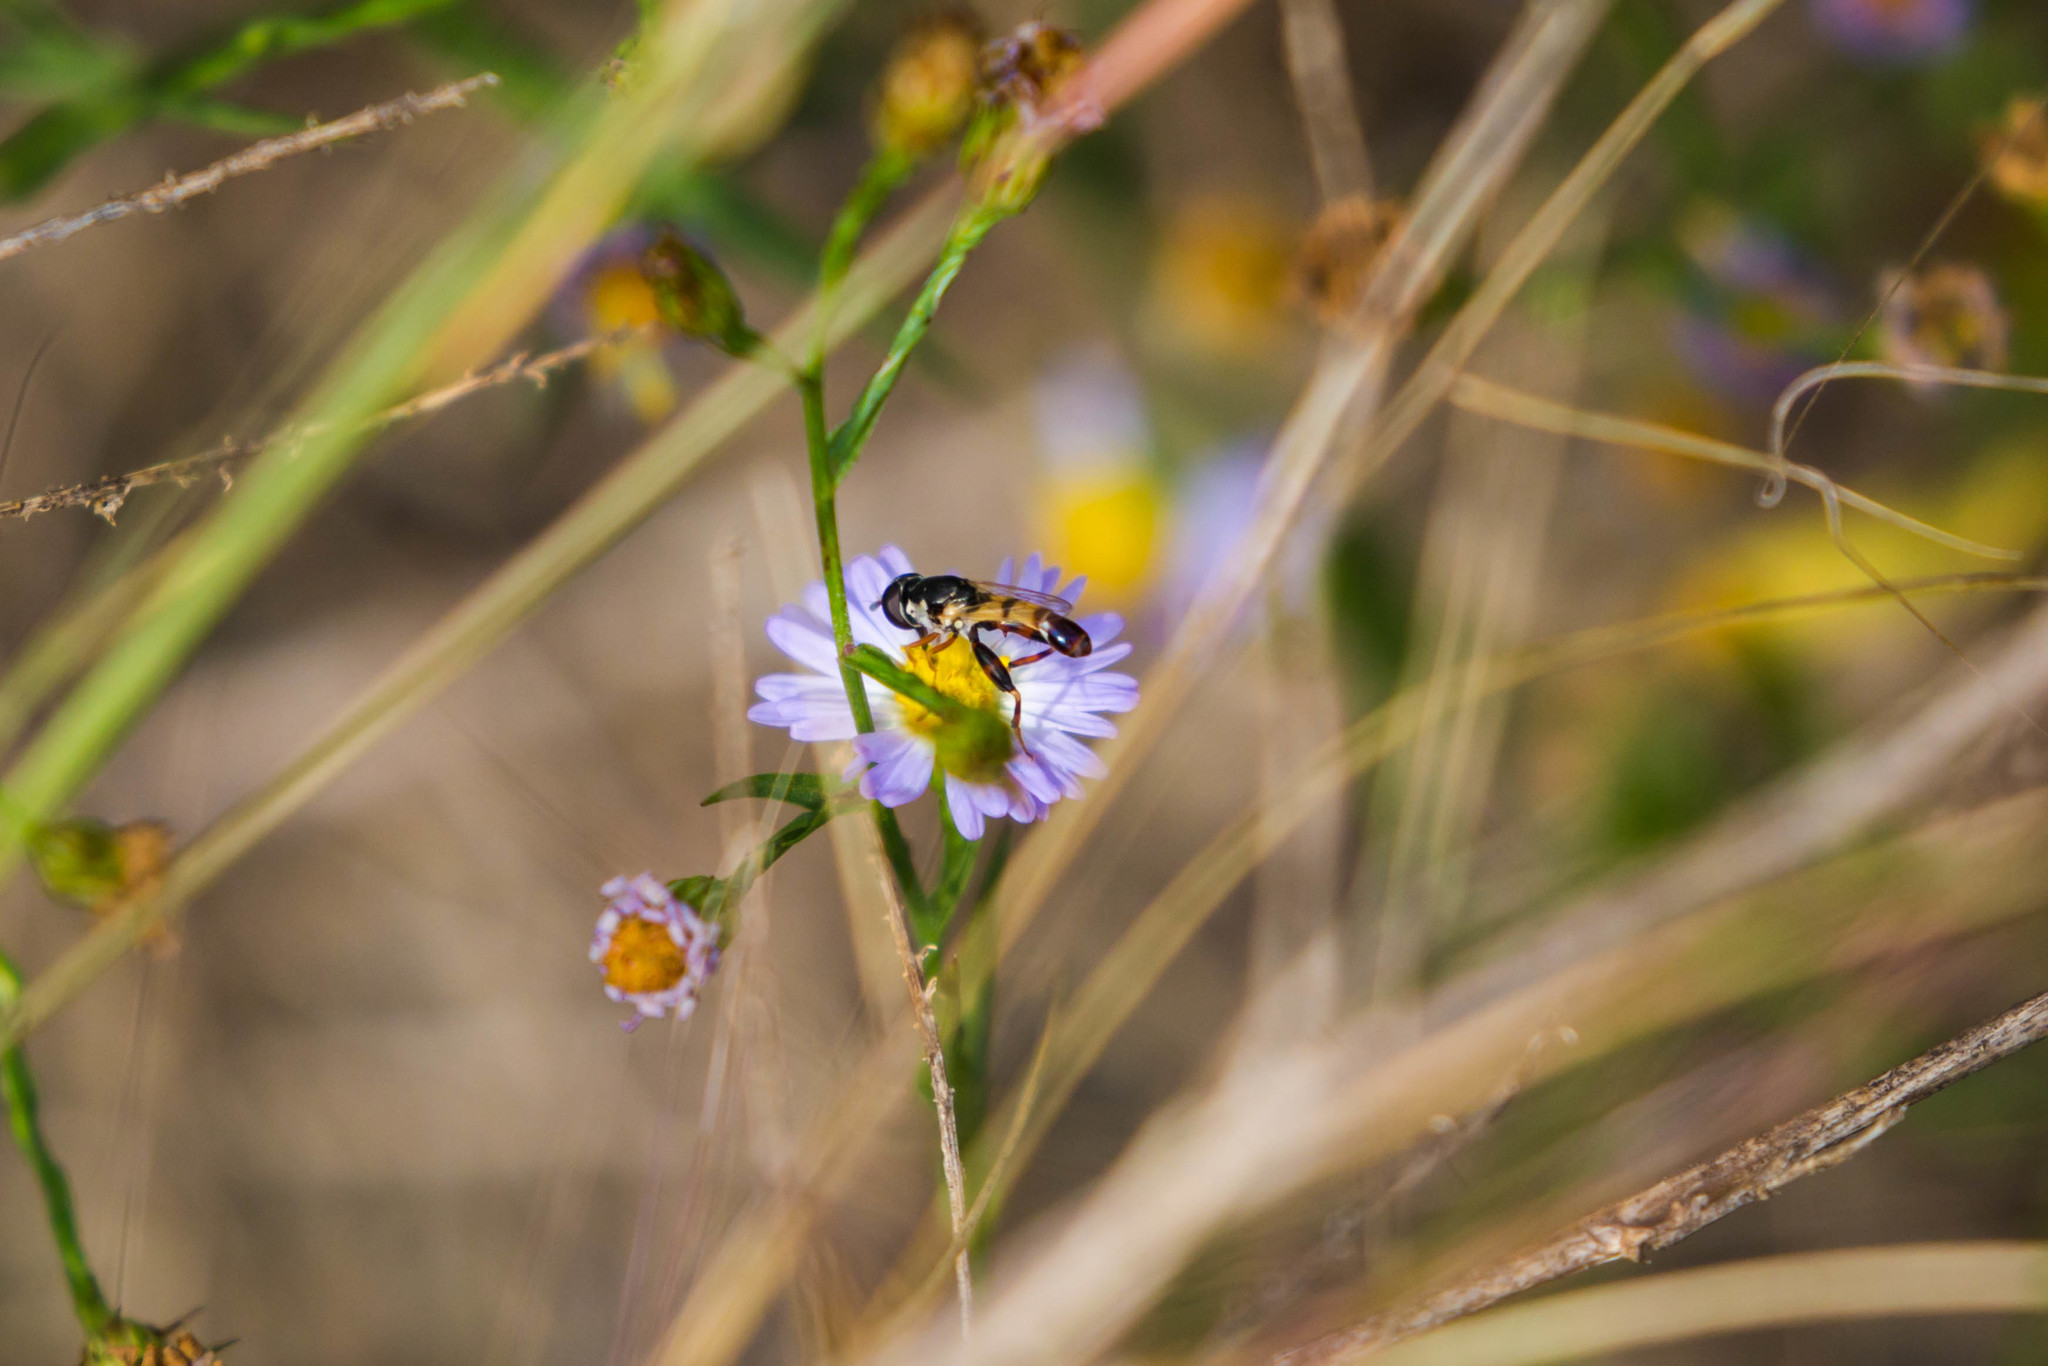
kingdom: Animalia
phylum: Arthropoda
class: Insecta
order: Diptera
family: Syrphidae
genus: Syritta
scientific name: Syritta flaviventris
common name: Syrphid fly
